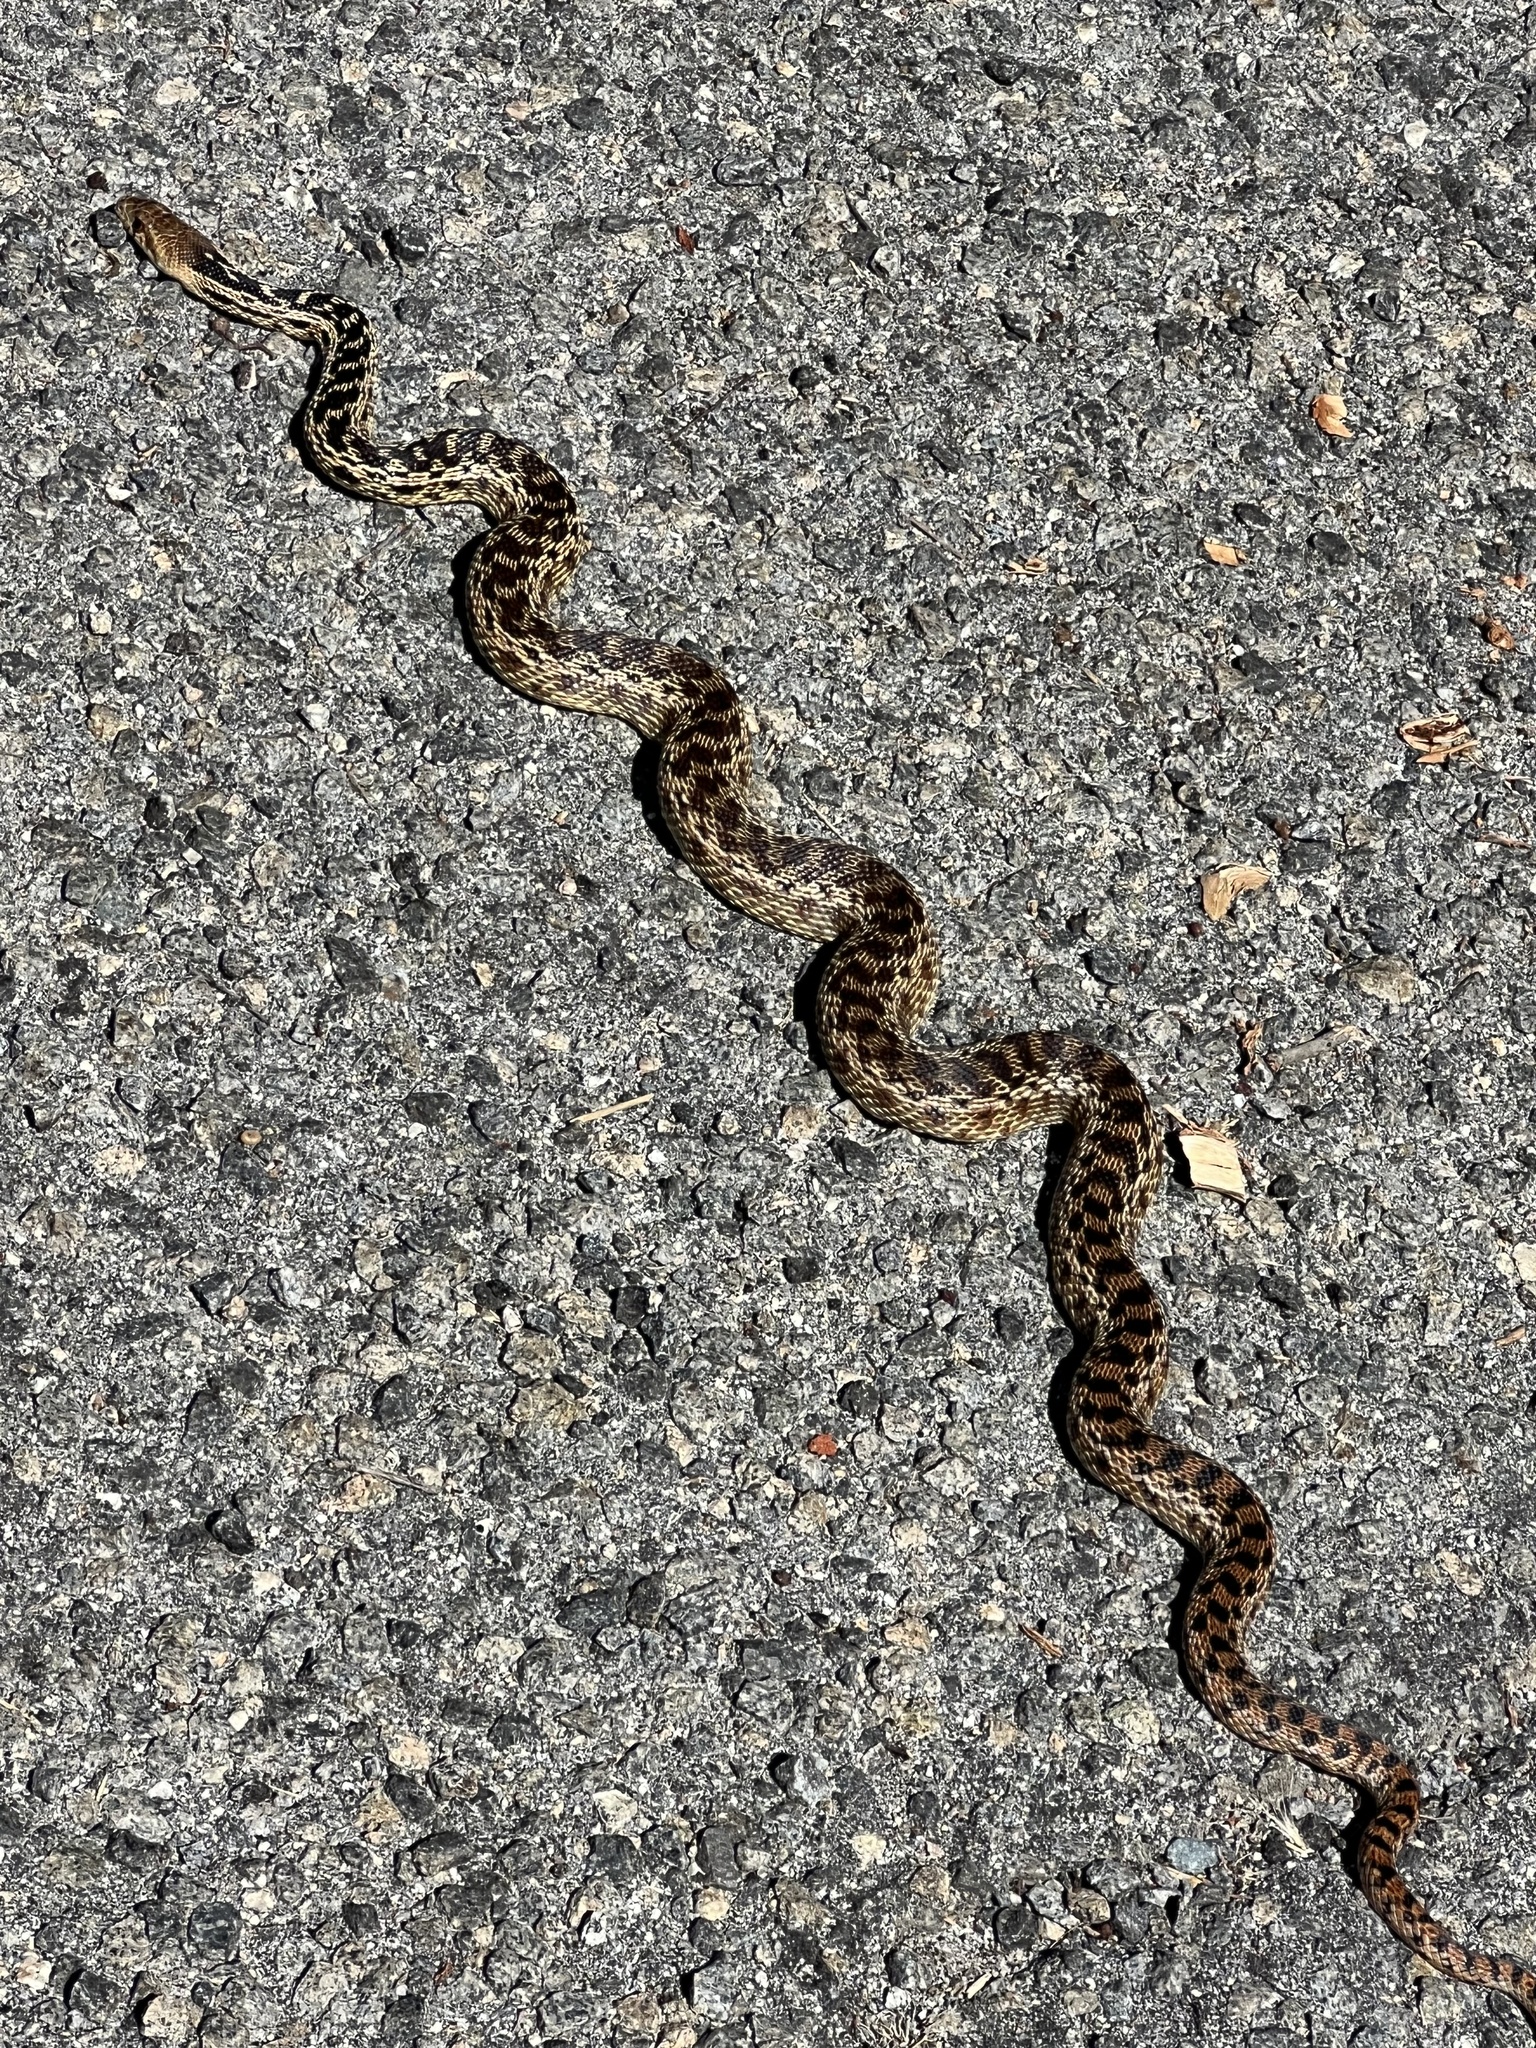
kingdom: Animalia
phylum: Chordata
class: Squamata
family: Colubridae
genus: Pituophis
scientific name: Pituophis catenifer
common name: Gopher snake
